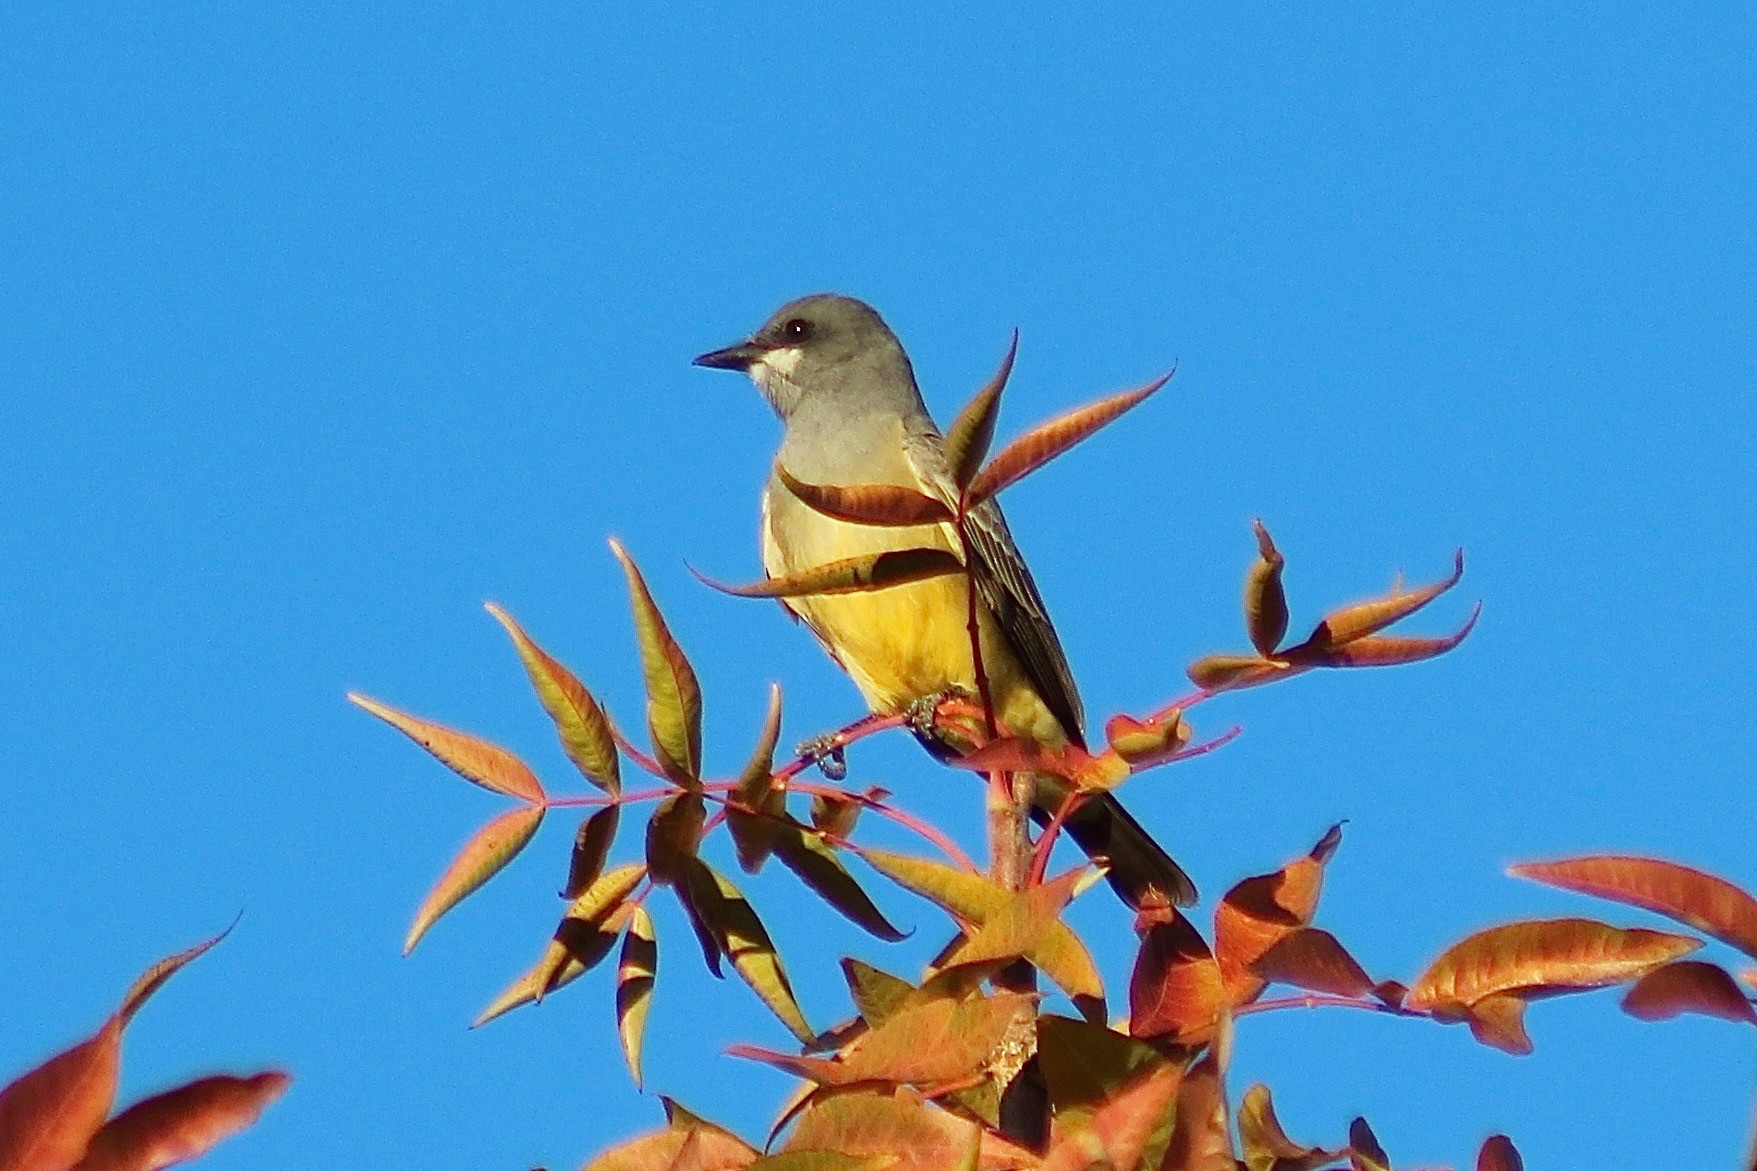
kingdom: Animalia
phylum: Chordata
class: Aves
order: Passeriformes
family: Tyrannidae
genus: Tyrannus
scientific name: Tyrannus vociferans
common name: Cassin's kingbird
